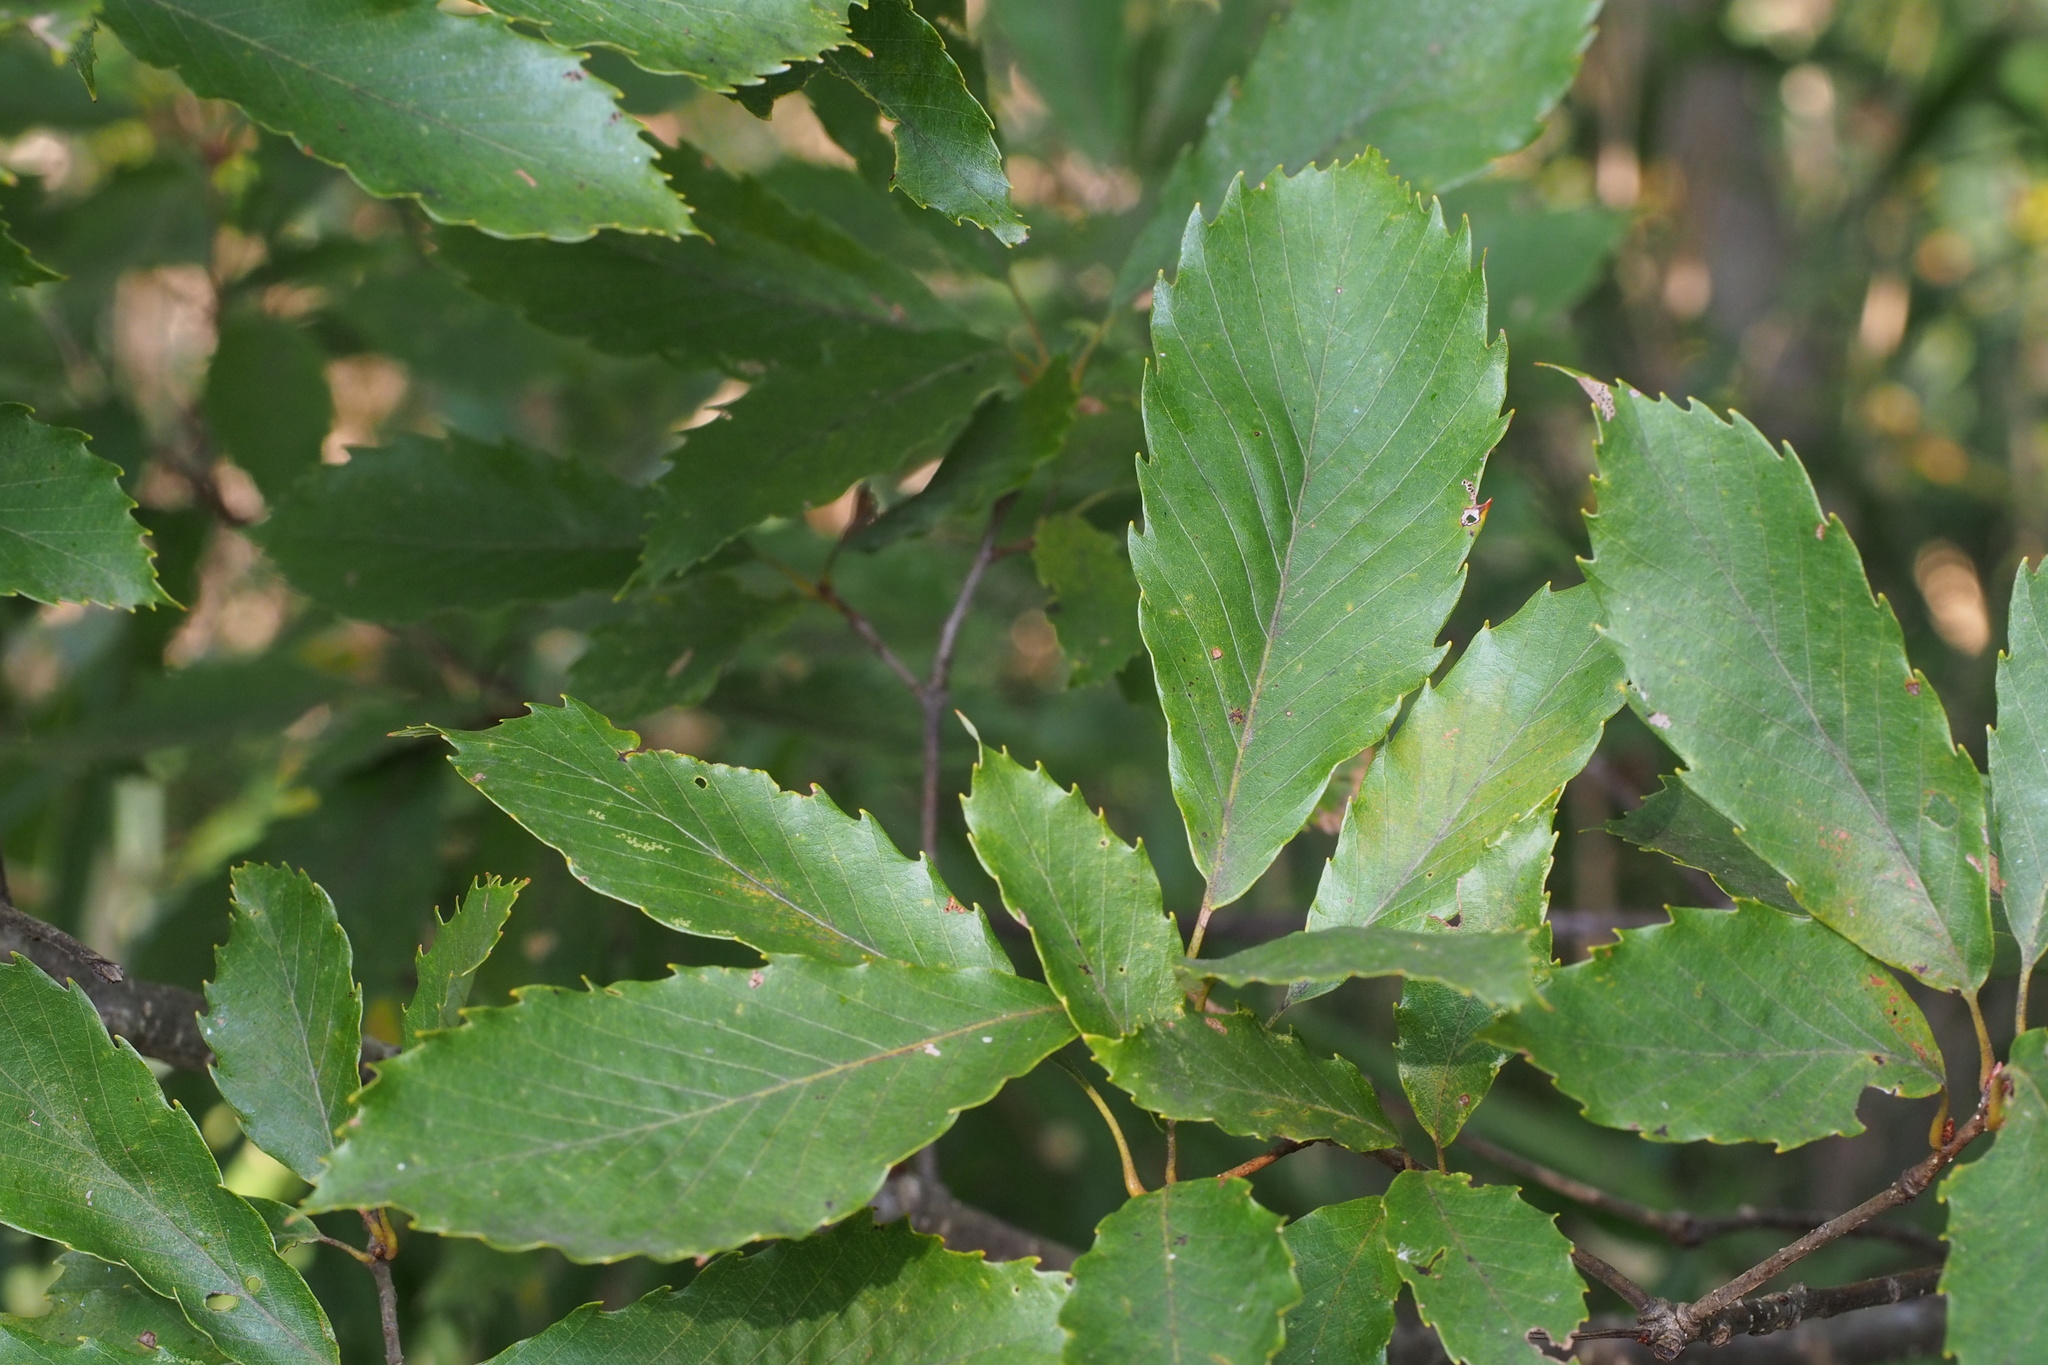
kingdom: Plantae
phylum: Tracheophyta
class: Magnoliopsida
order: Fagales
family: Fagaceae
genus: Quercus
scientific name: Quercus serrata
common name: Bao li
